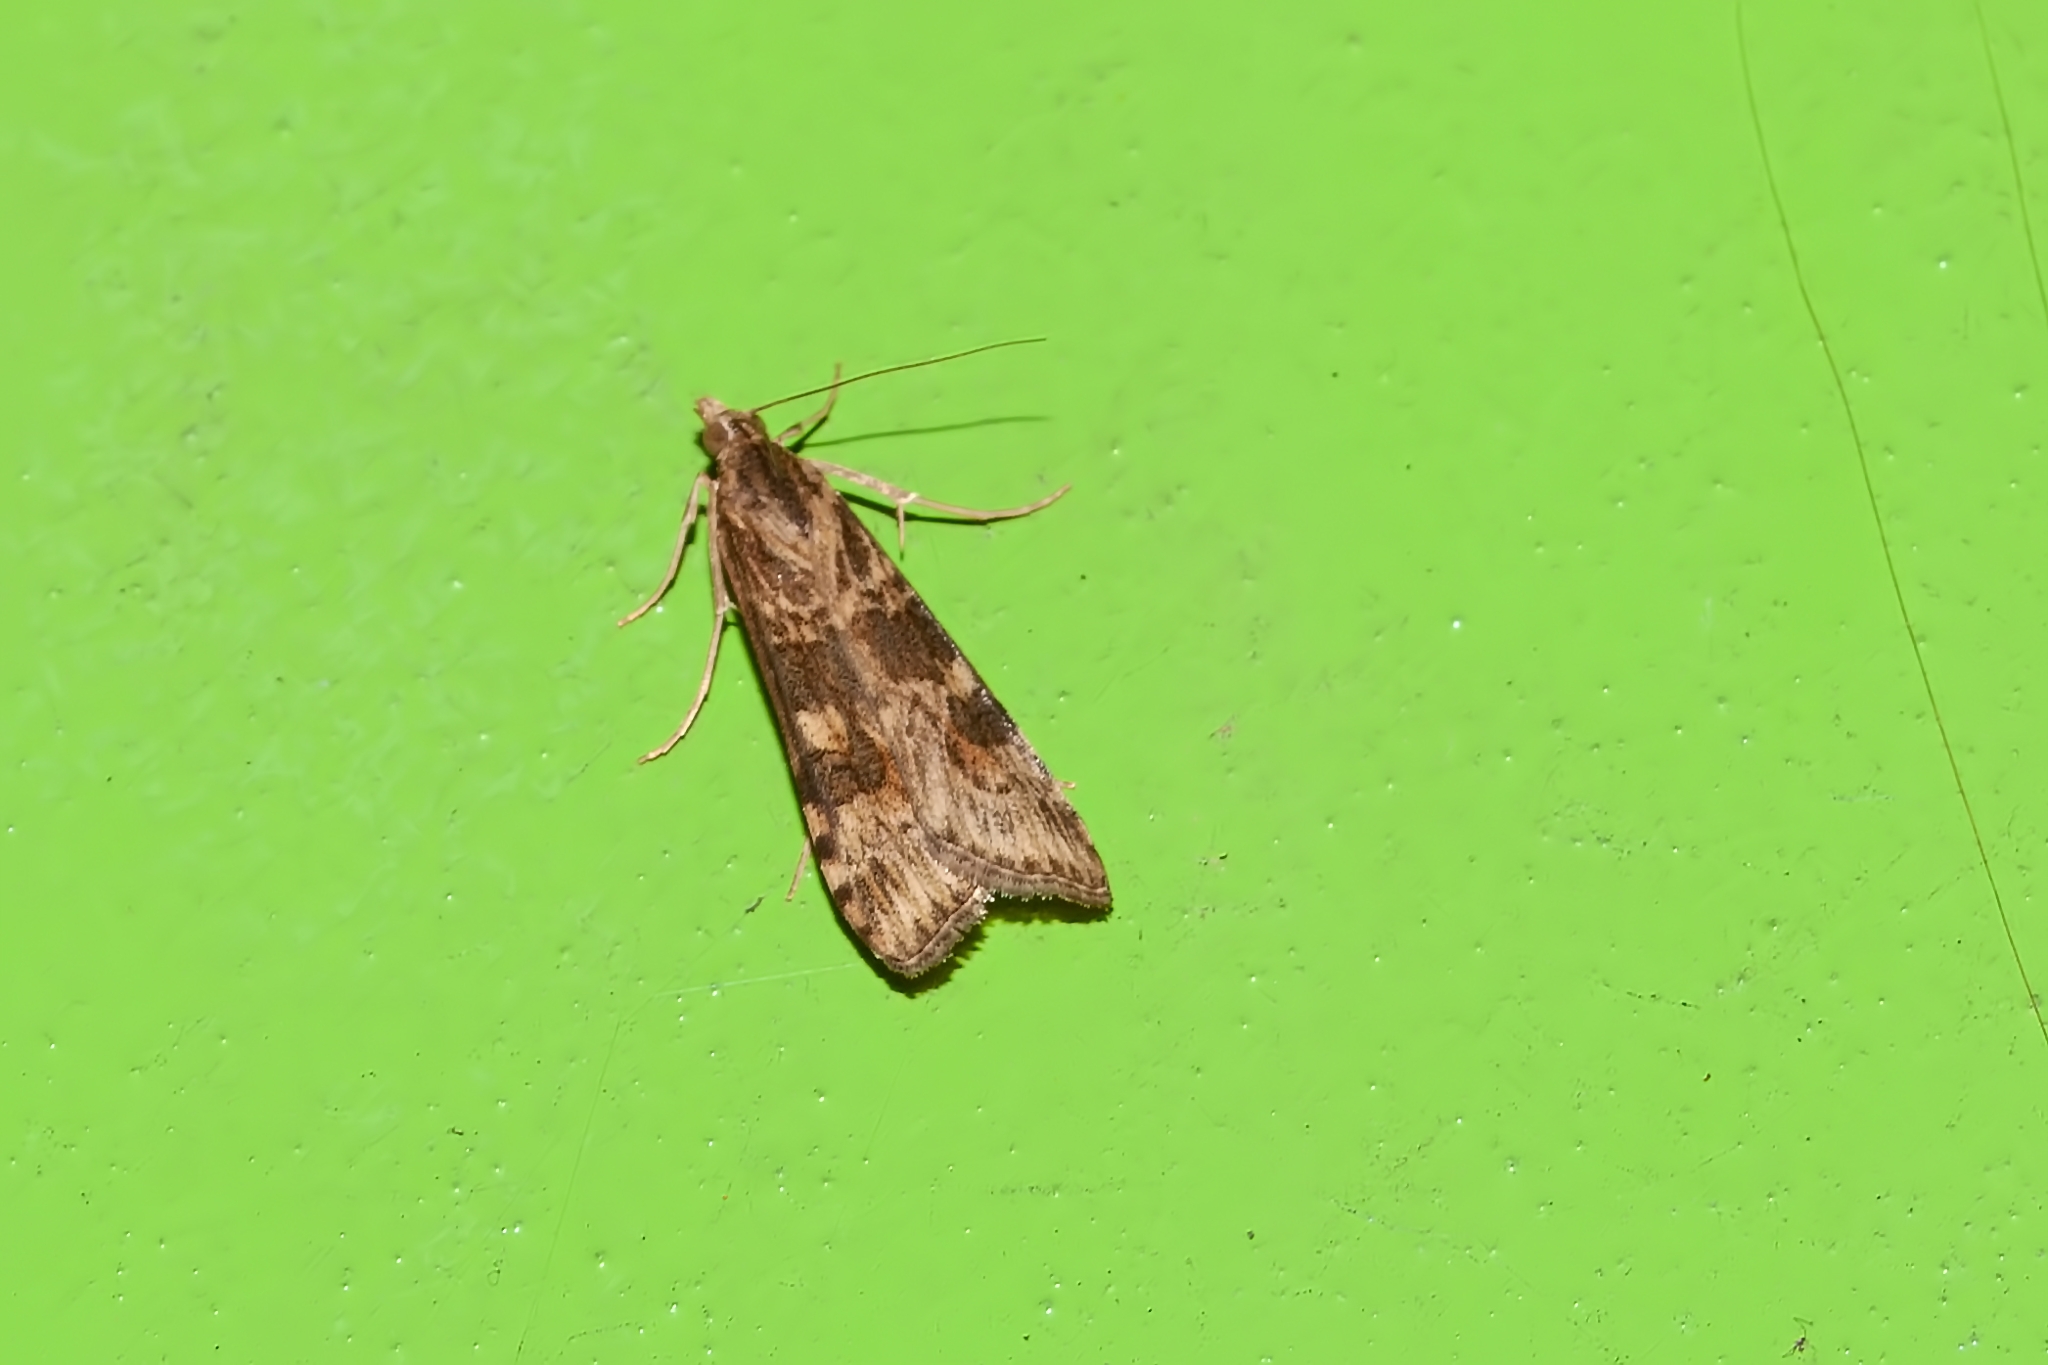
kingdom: Animalia
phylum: Arthropoda
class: Insecta
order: Lepidoptera
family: Crambidae
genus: Nomophila
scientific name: Nomophila nearctica
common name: American rush veneer
